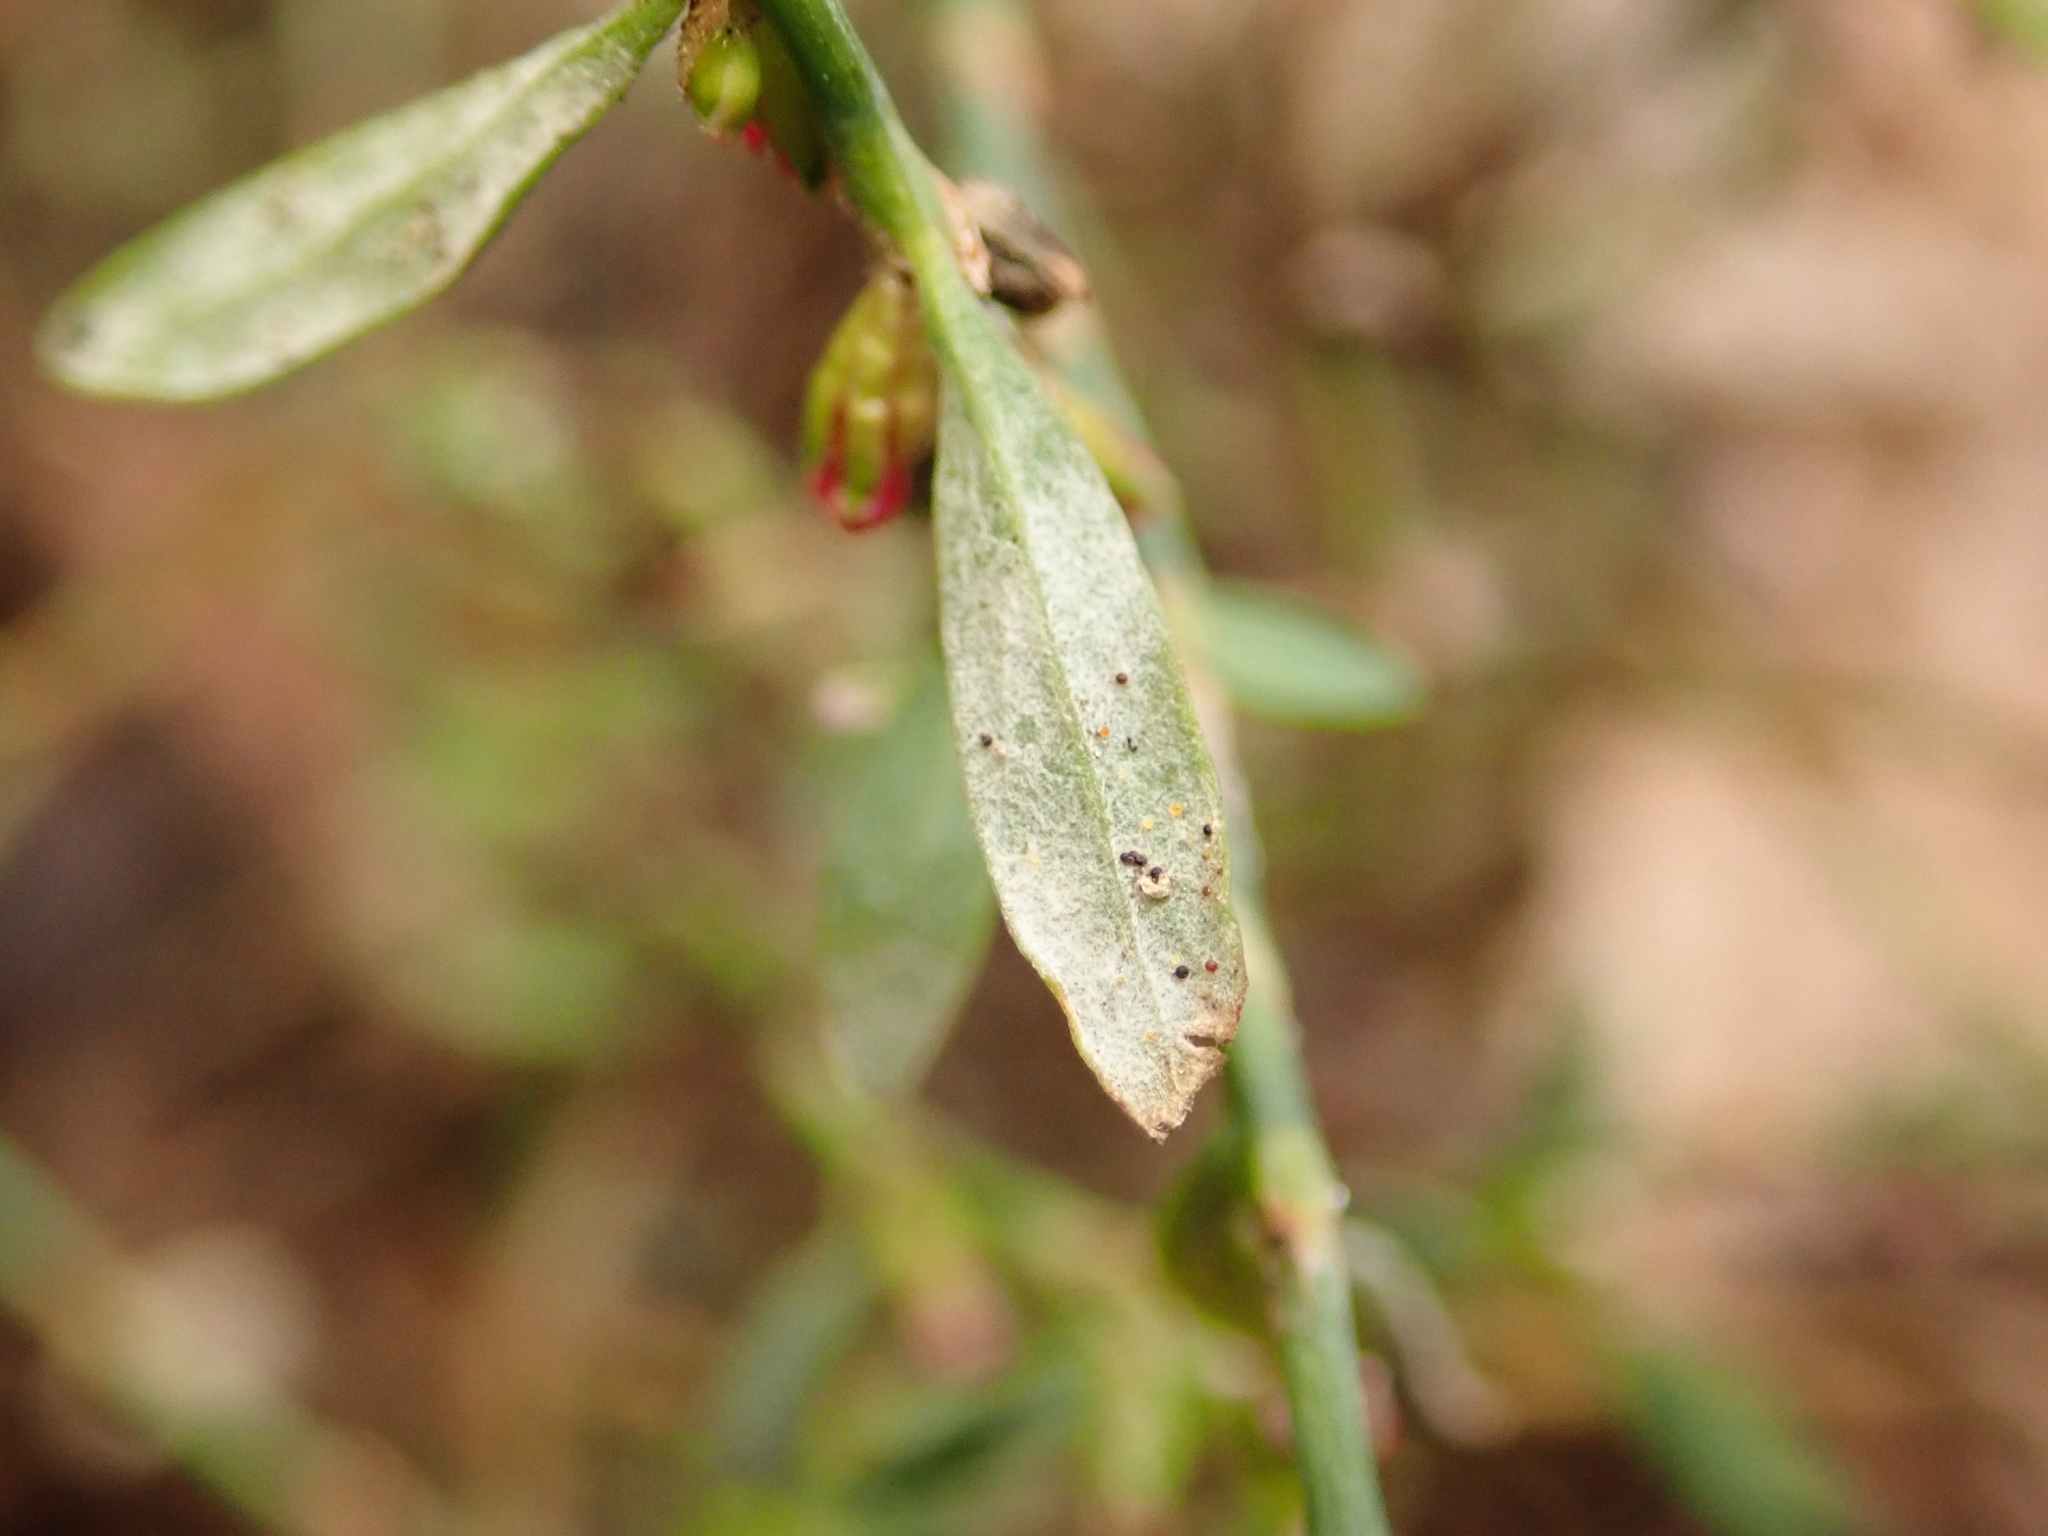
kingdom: Fungi
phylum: Ascomycota
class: Leotiomycetes
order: Helotiales
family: Erysiphaceae
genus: Erysiphe
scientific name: Erysiphe polygoni
